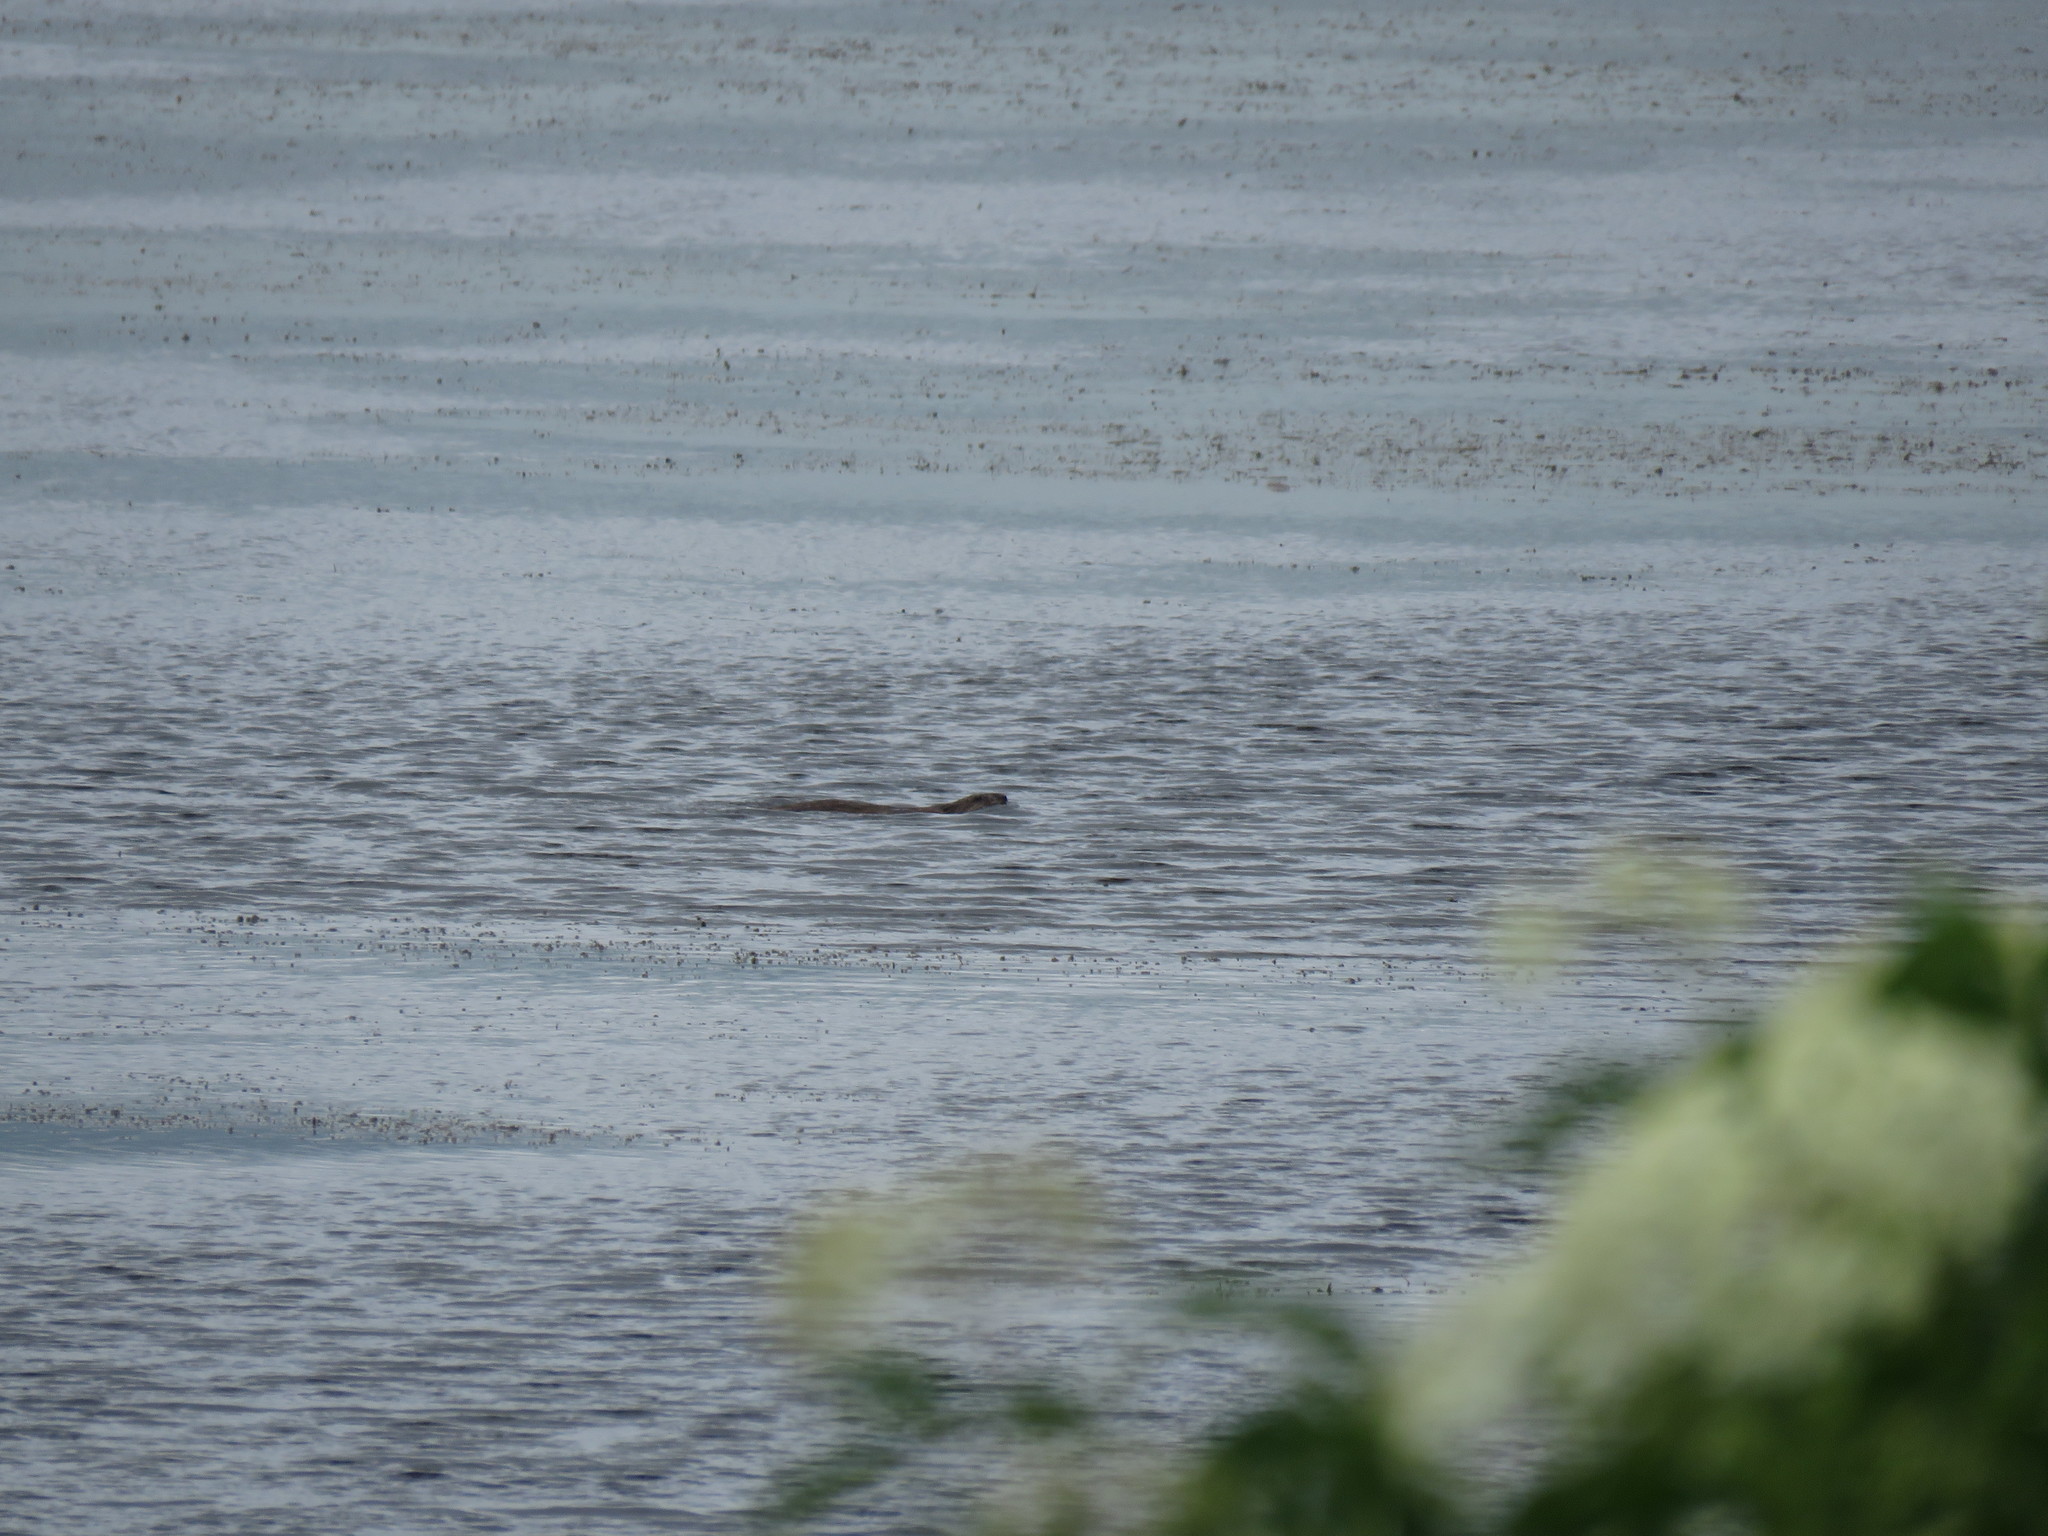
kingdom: Animalia
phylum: Chordata
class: Mammalia
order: Rodentia
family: Castoridae
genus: Castor
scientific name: Castor canadensis
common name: American beaver
